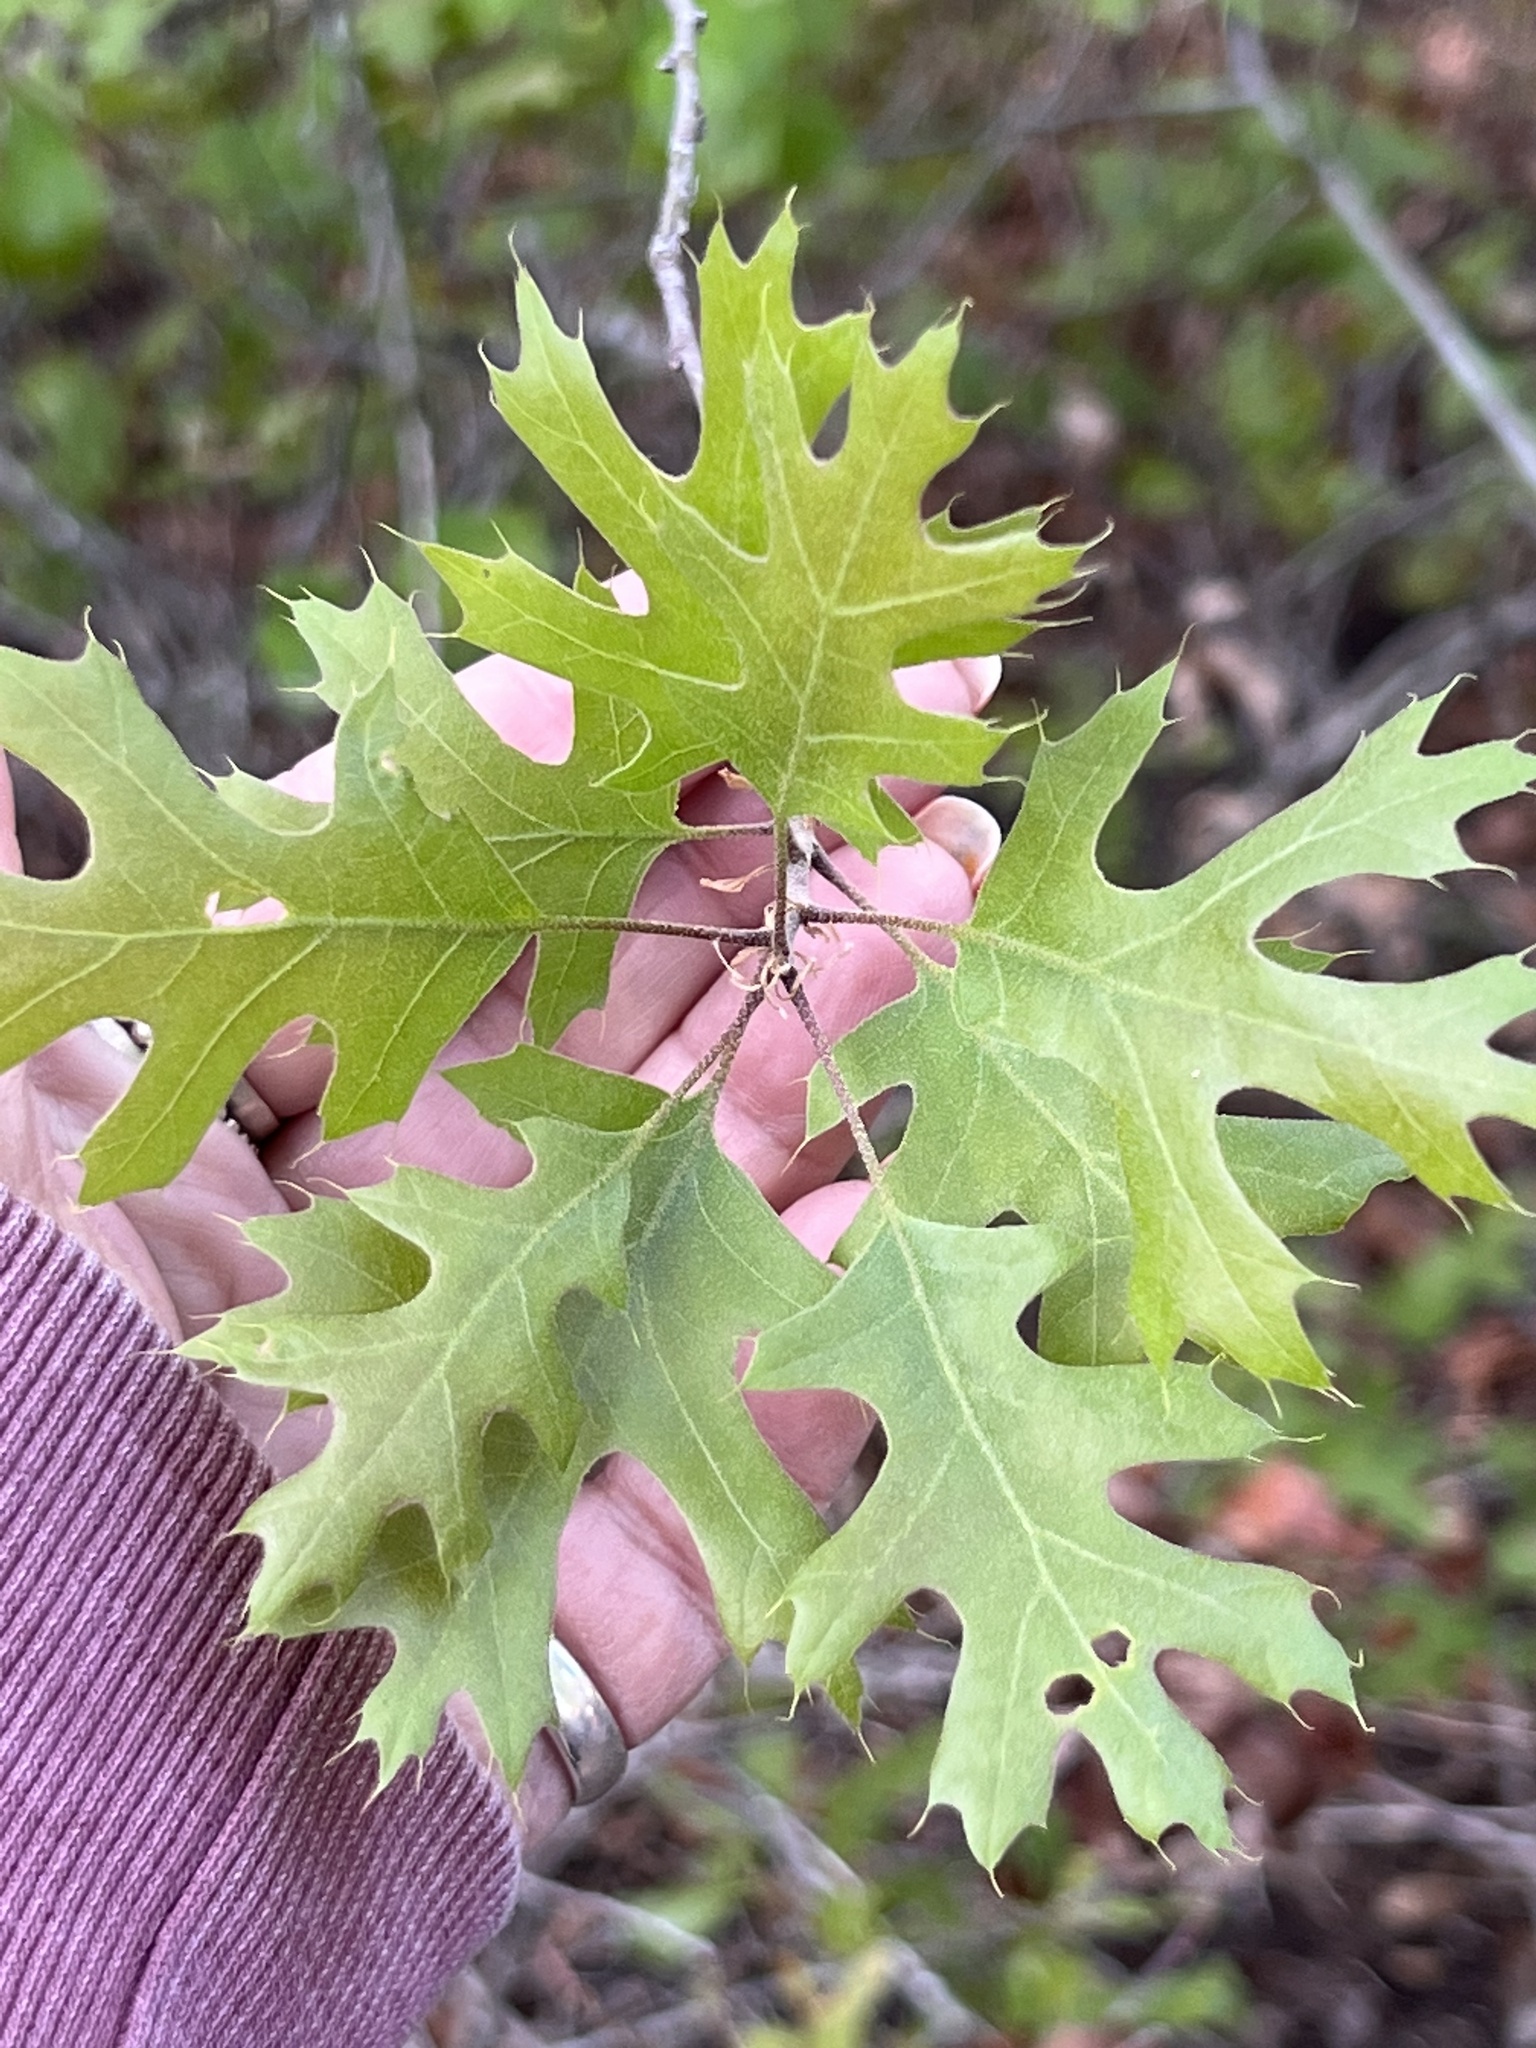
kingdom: Plantae
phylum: Tracheophyta
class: Magnoliopsida
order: Fagales
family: Fagaceae
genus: Quercus
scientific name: Quercus buckleyi
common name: Buckley oak
